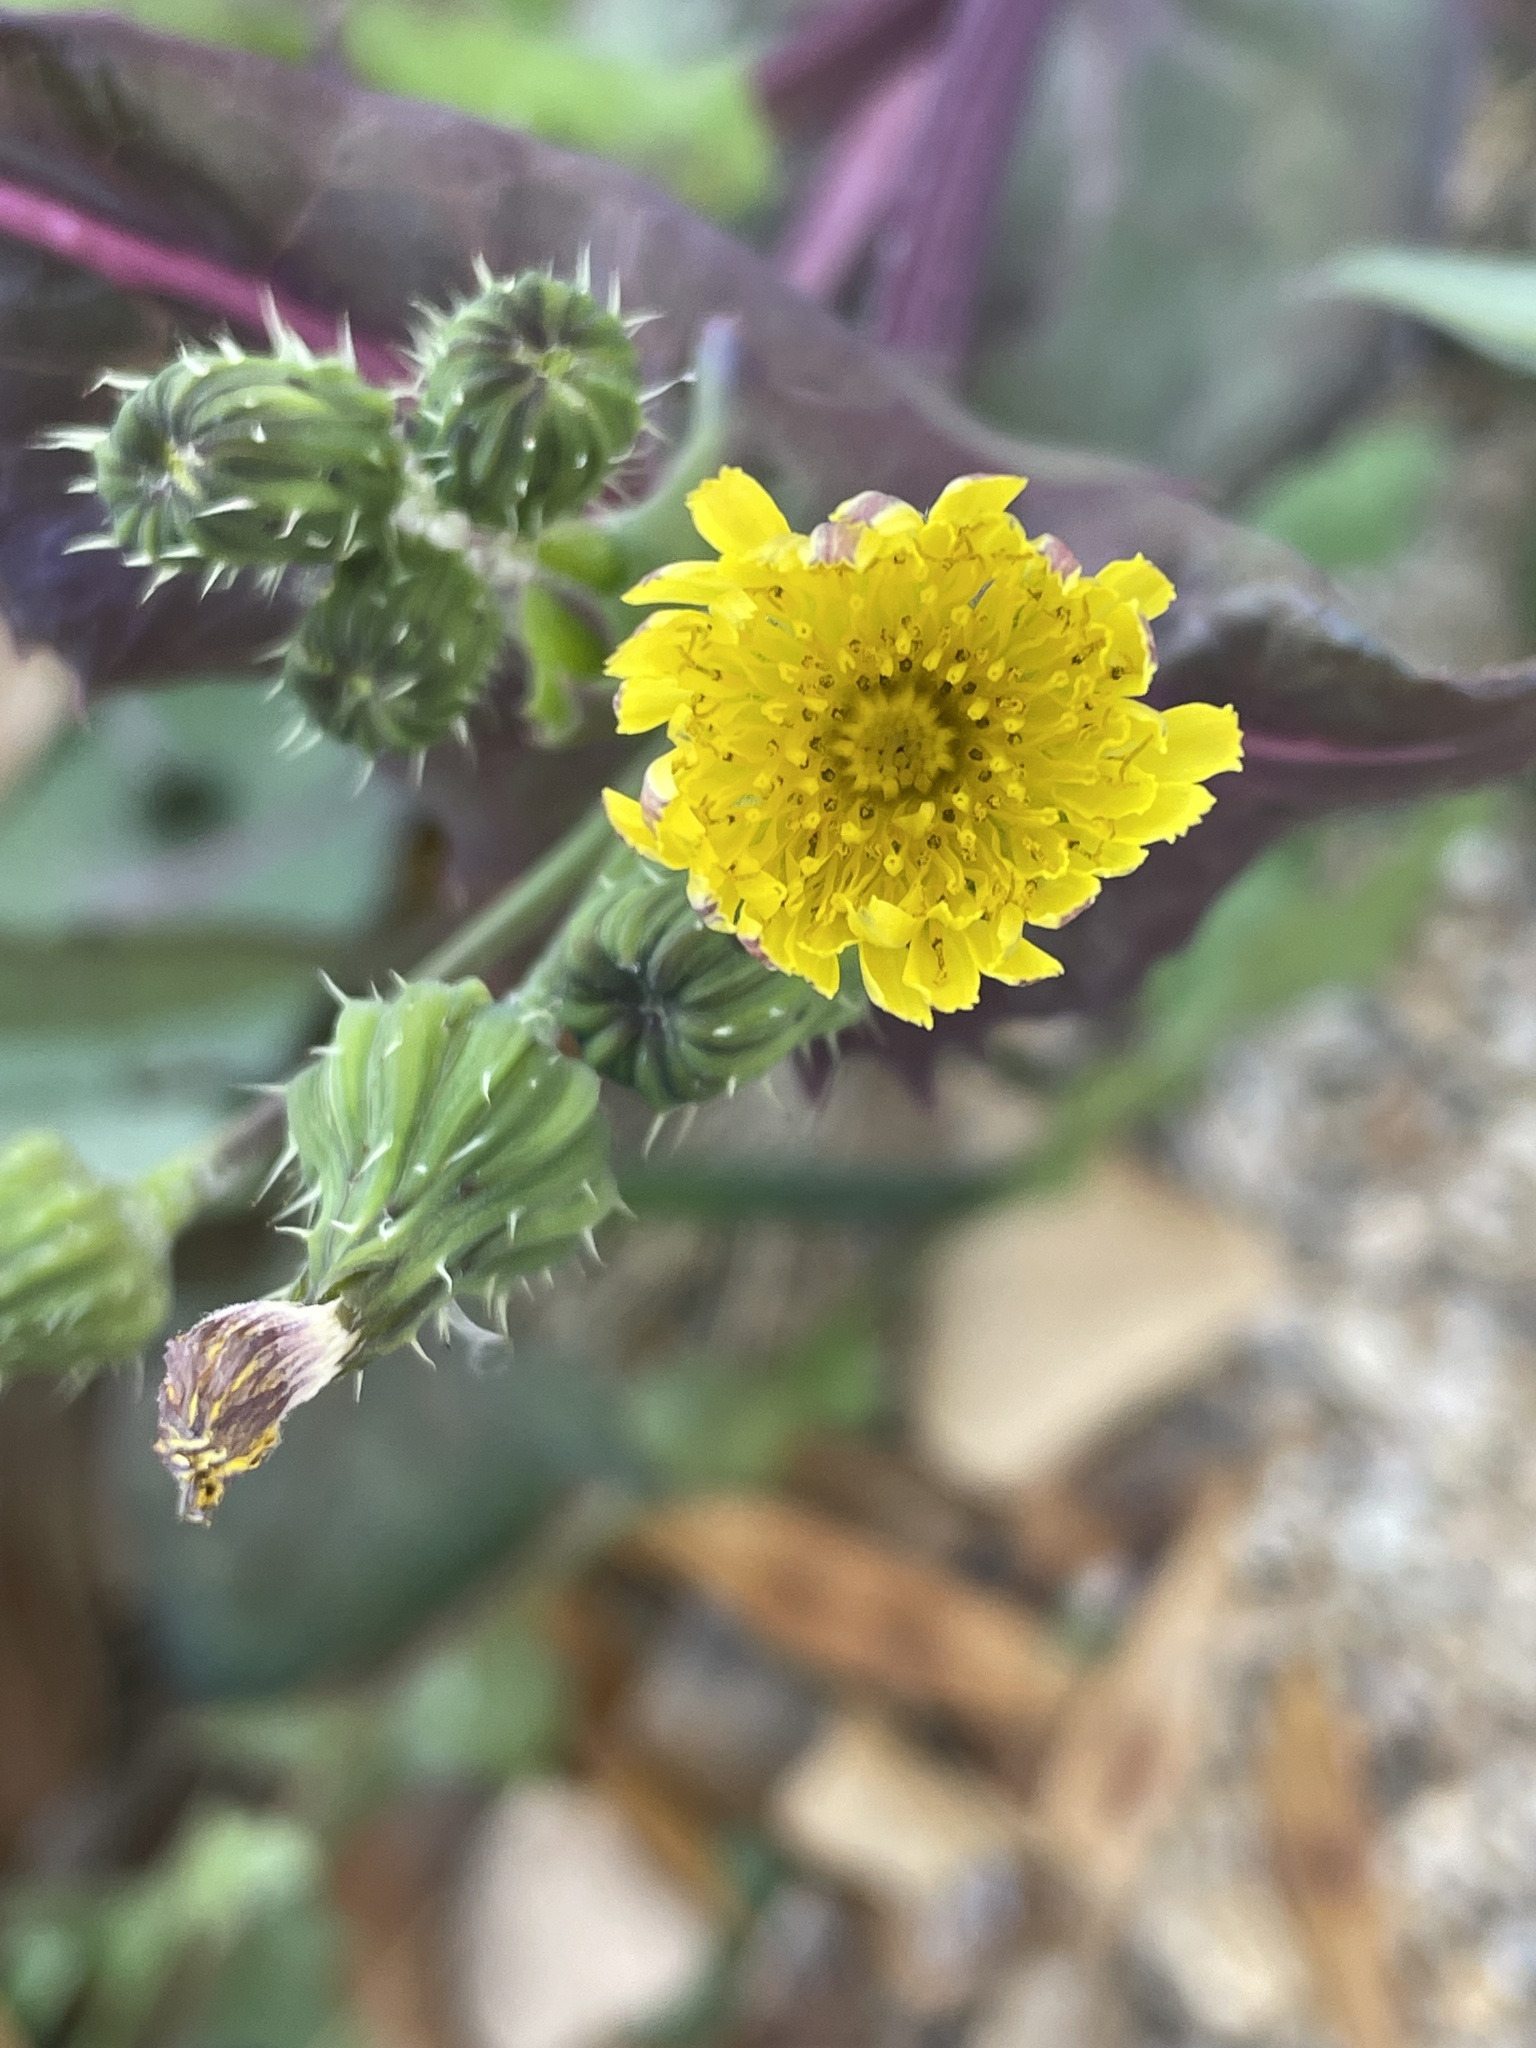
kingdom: Plantae
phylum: Tracheophyta
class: Magnoliopsida
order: Asterales
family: Asteraceae
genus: Sonchus
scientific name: Sonchus oleraceus
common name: Common sowthistle
